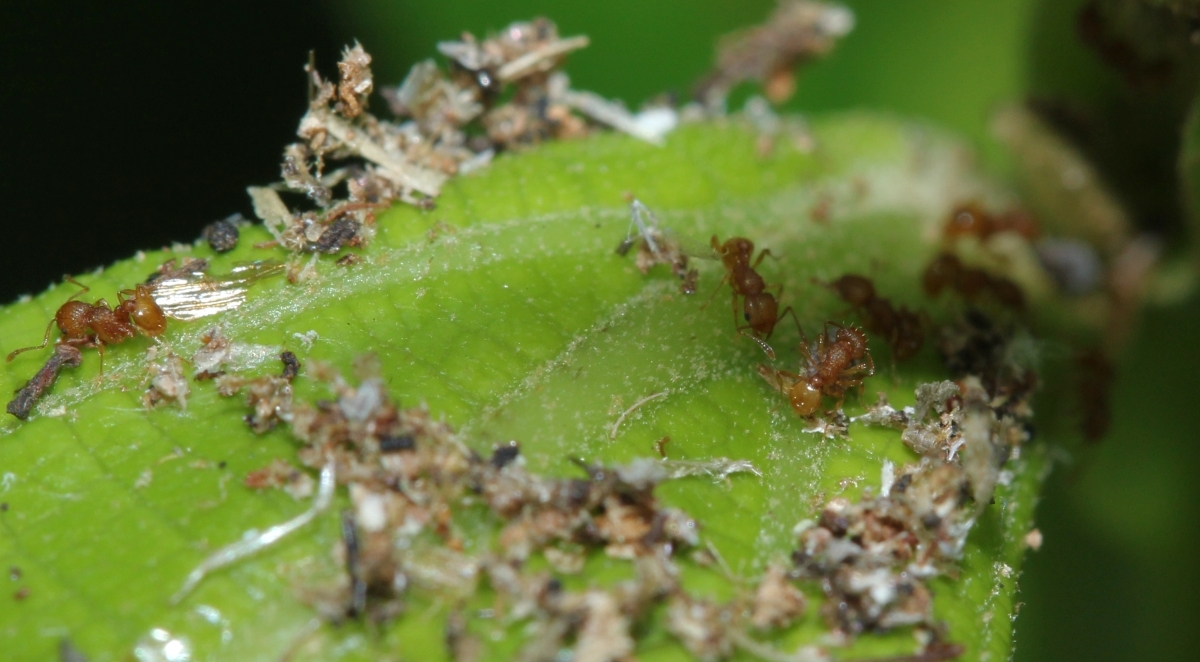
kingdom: Animalia
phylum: Arthropoda
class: Insecta
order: Hymenoptera
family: Formicidae
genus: Wasmannia
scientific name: Wasmannia
